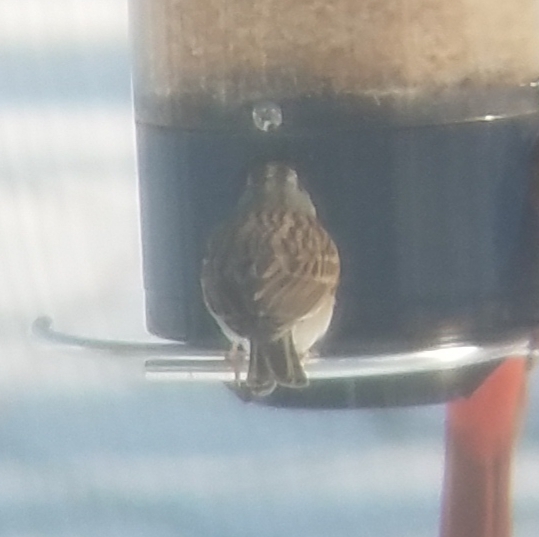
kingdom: Animalia
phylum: Chordata
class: Aves
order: Passeriformes
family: Passerellidae
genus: Zonotrichia
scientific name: Zonotrichia leucophrys
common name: White-crowned sparrow
